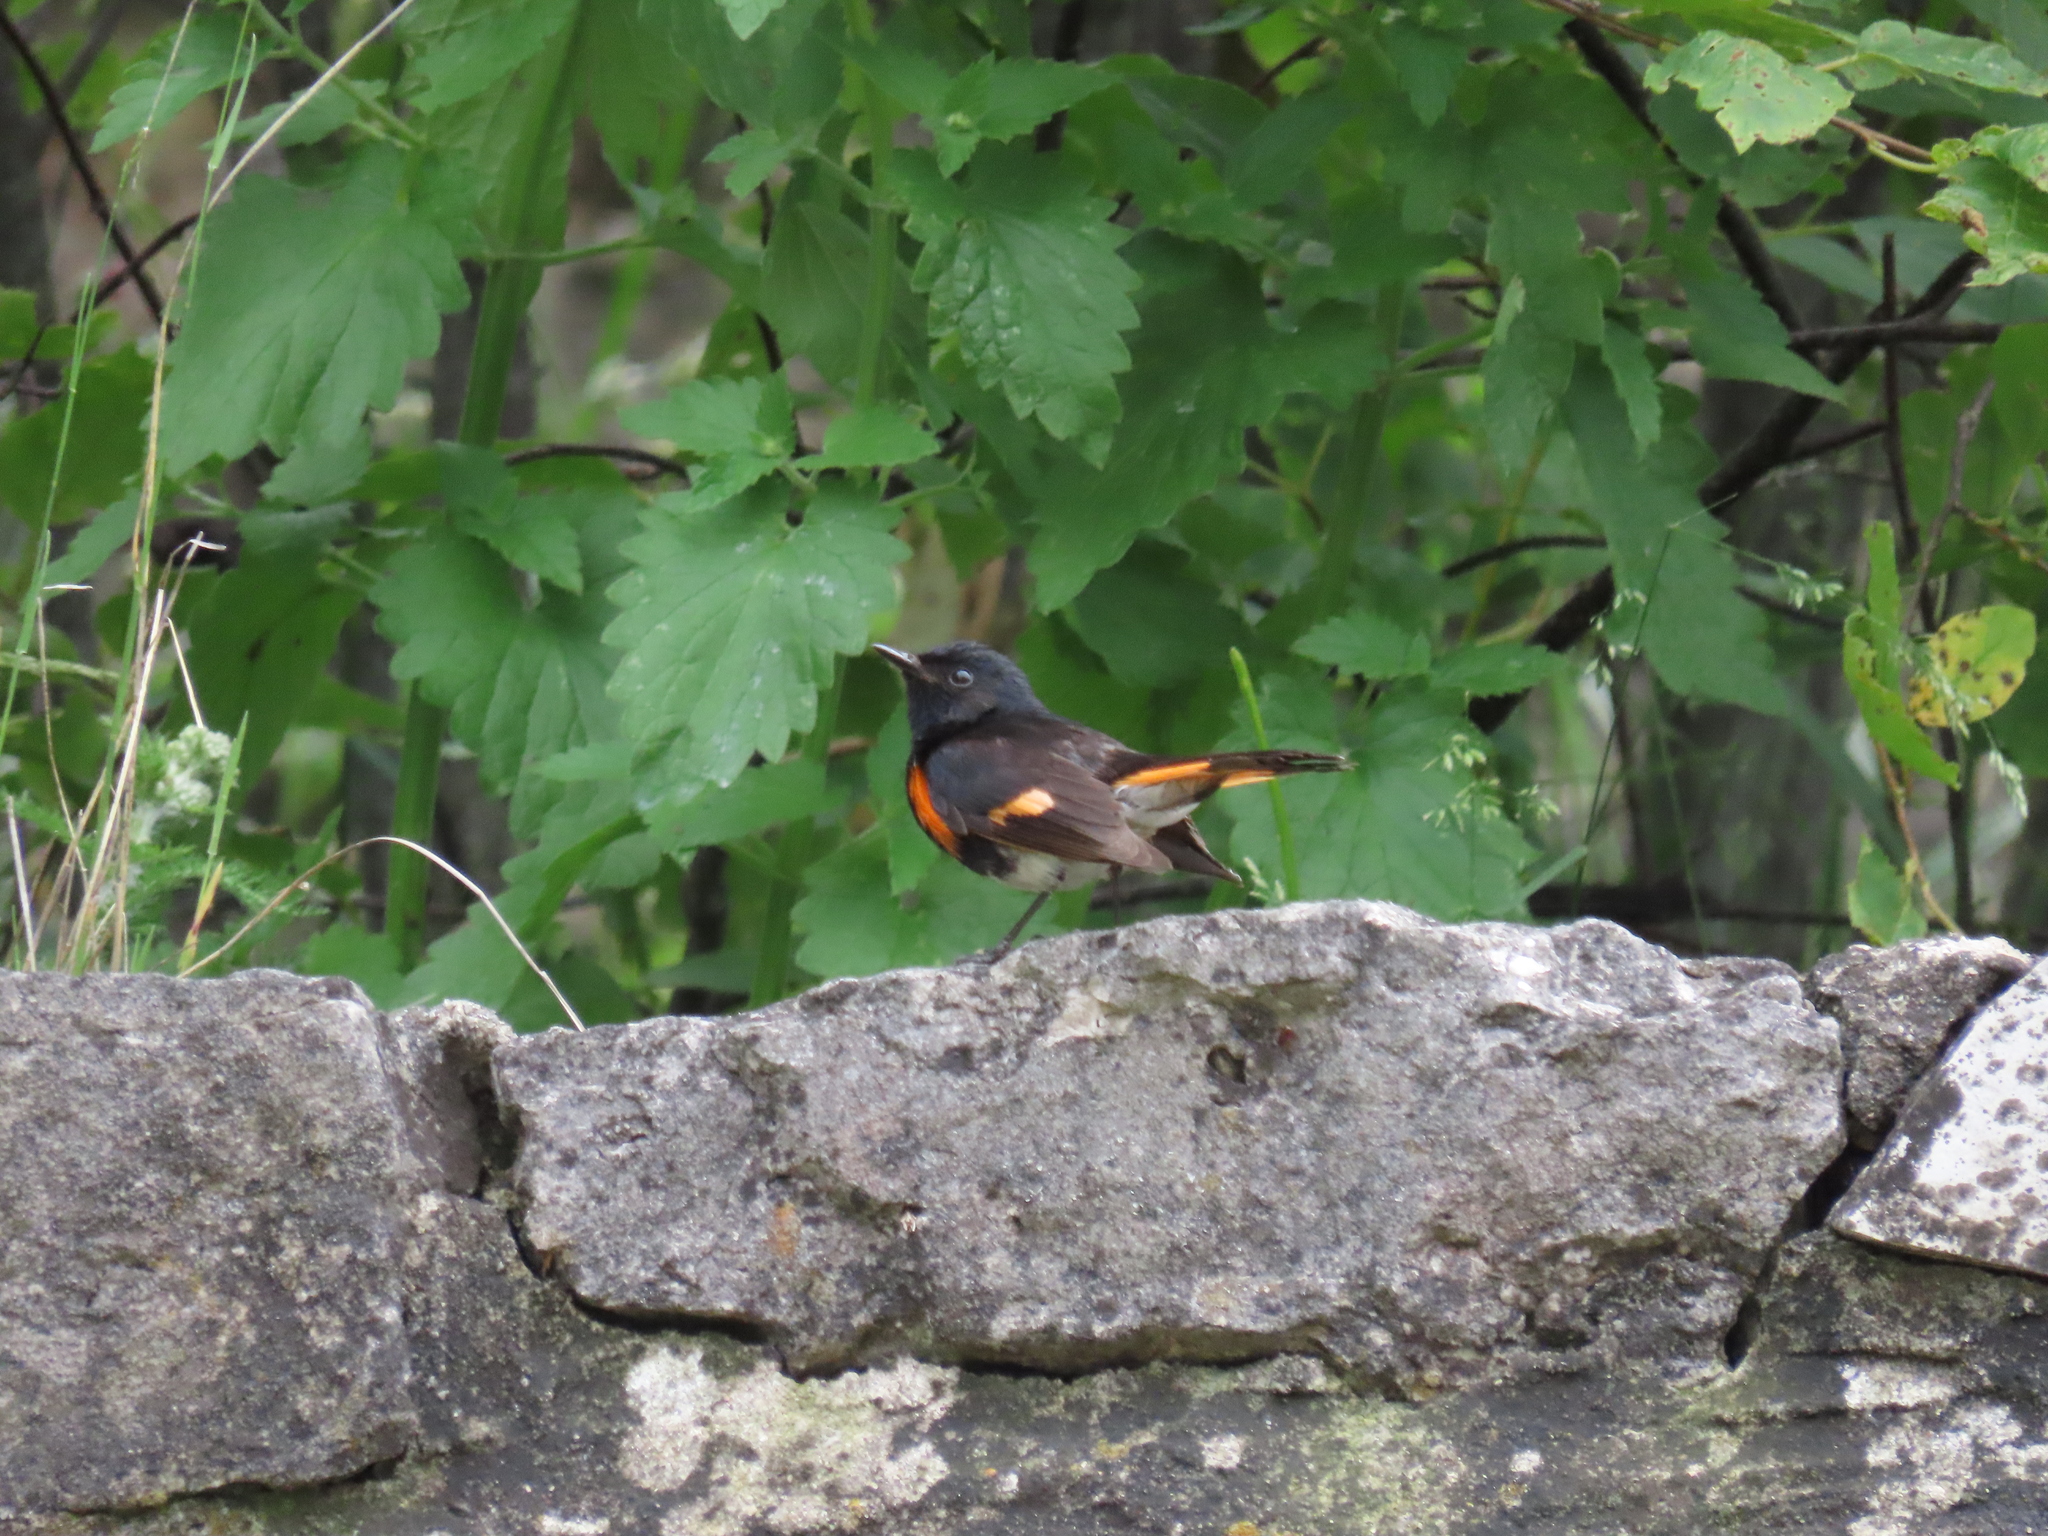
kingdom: Animalia
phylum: Chordata
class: Aves
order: Passeriformes
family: Parulidae
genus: Setophaga
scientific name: Setophaga ruticilla
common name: American redstart
